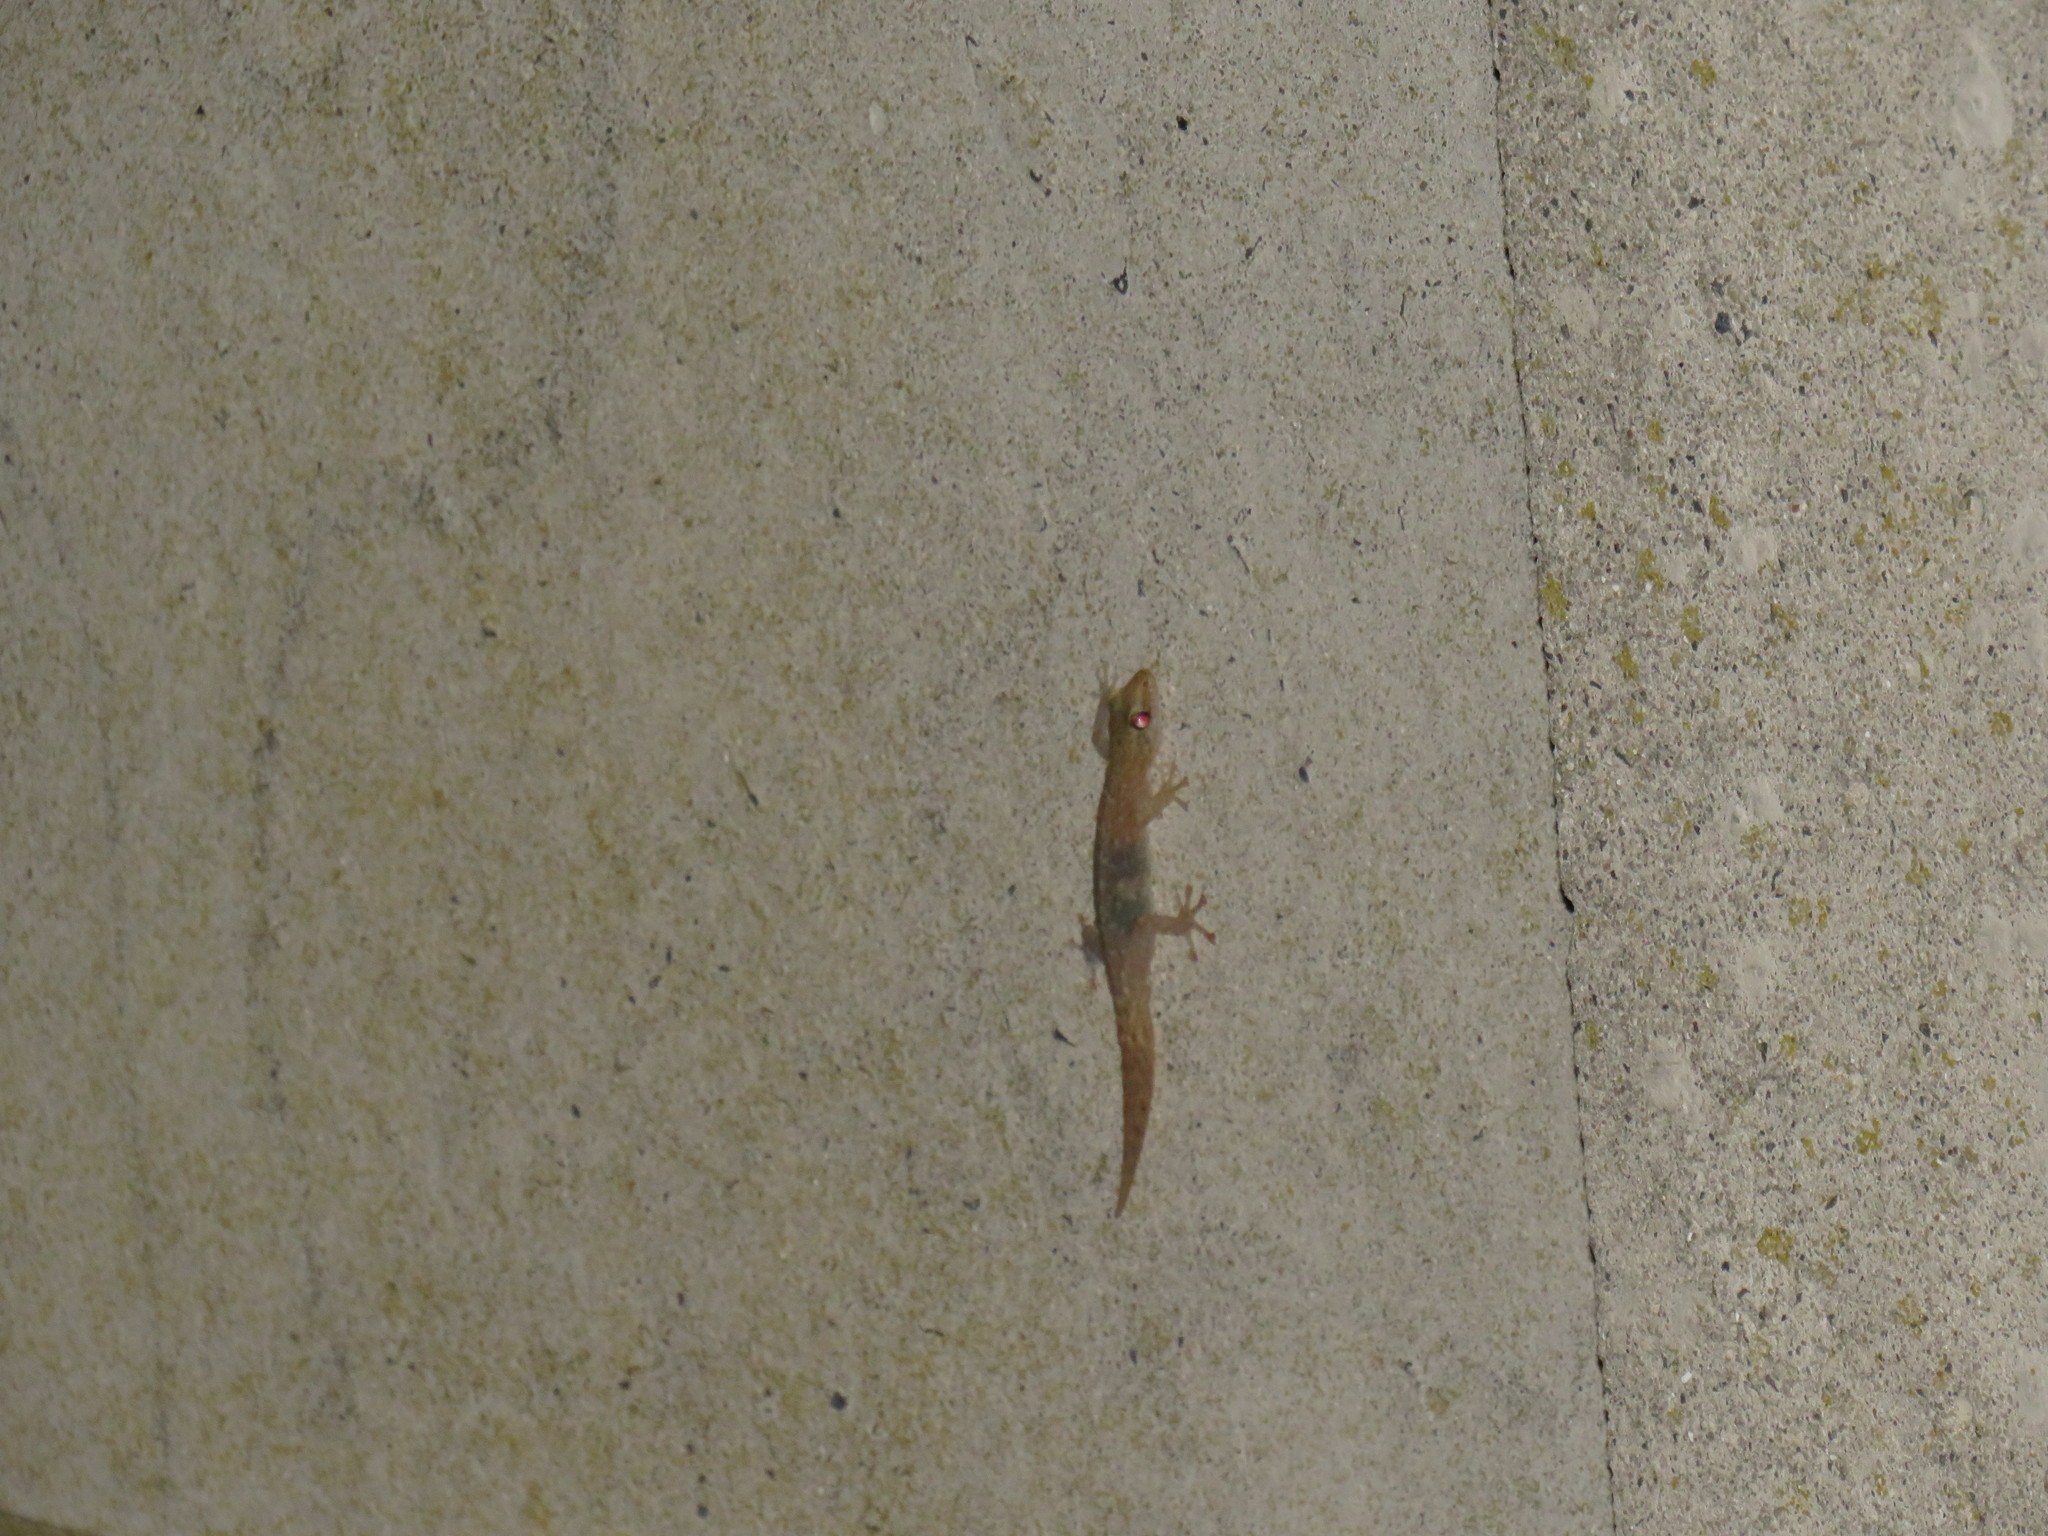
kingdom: Animalia
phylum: Chordata
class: Squamata
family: Gekkonidae
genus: Afrogecko
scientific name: Afrogecko porphyreus
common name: Marbled leaf-toed gecko
